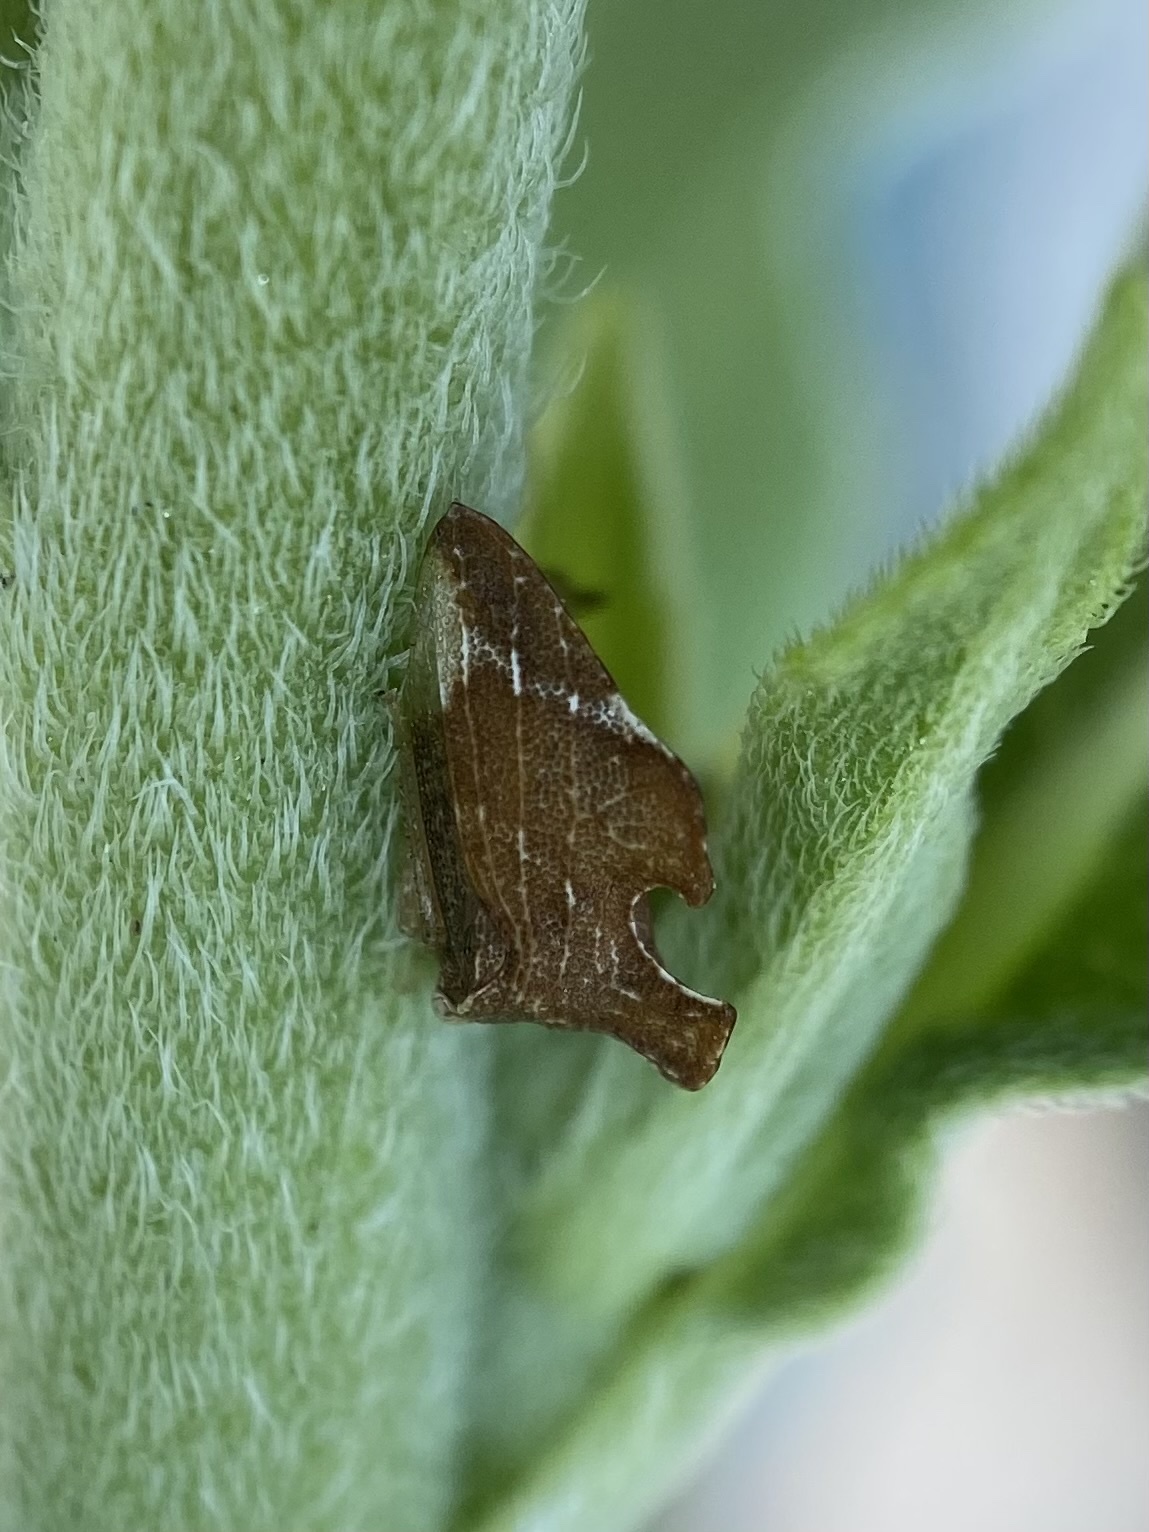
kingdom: Animalia
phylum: Arthropoda
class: Insecta
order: Hemiptera
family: Membracidae
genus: Entylia
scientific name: Entylia carinata
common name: Keeled treehopper
